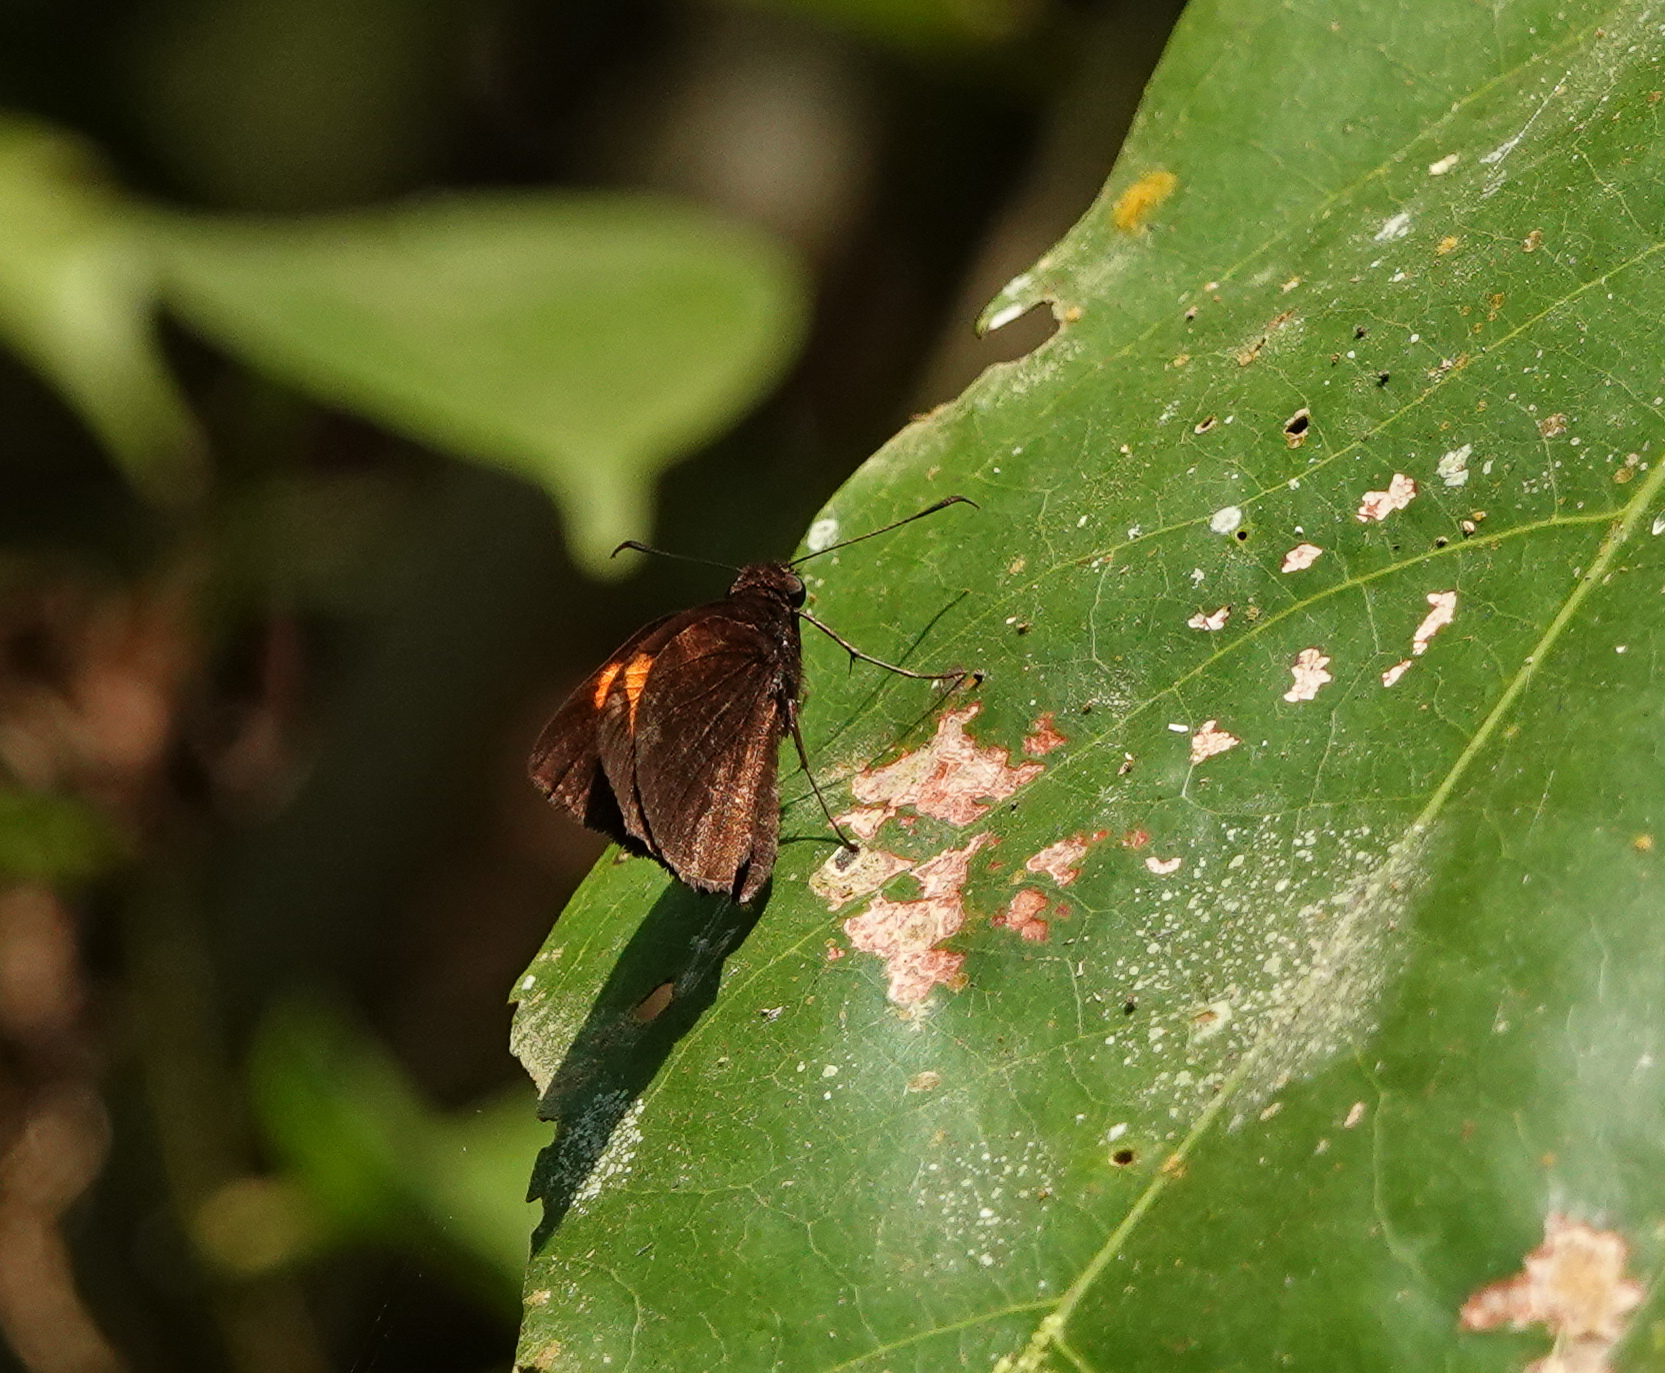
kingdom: Animalia
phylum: Arthropoda
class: Insecta
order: Lepidoptera
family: Hesperiidae
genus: Koruthaialos
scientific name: Koruthaialos sindu
